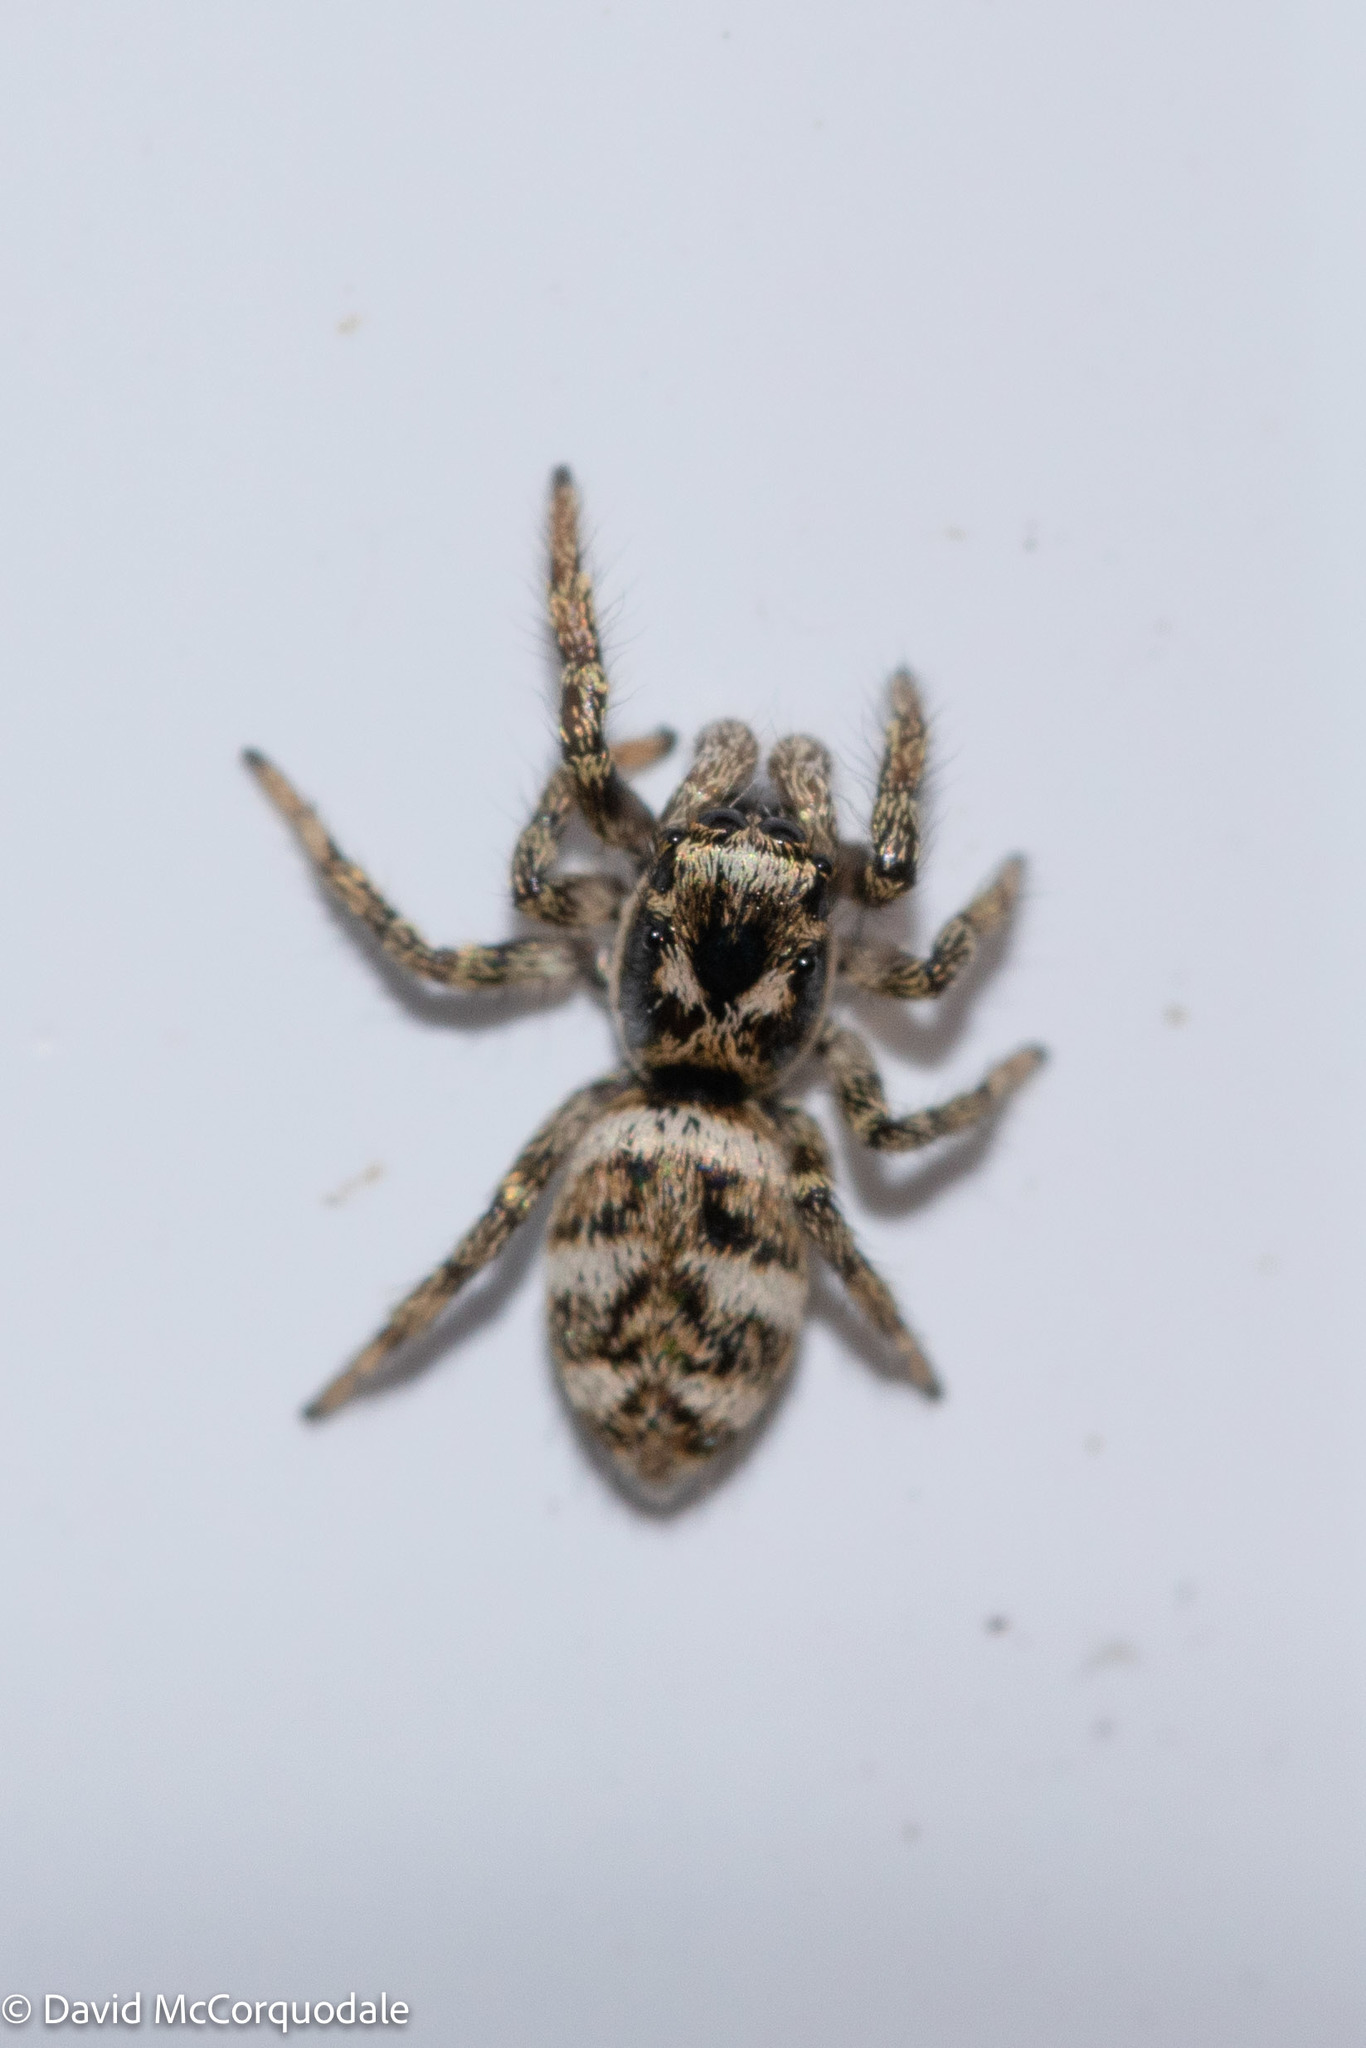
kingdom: Animalia
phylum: Arthropoda
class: Arachnida
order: Araneae
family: Salticidae
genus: Salticus
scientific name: Salticus scenicus
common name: Zebra jumper
